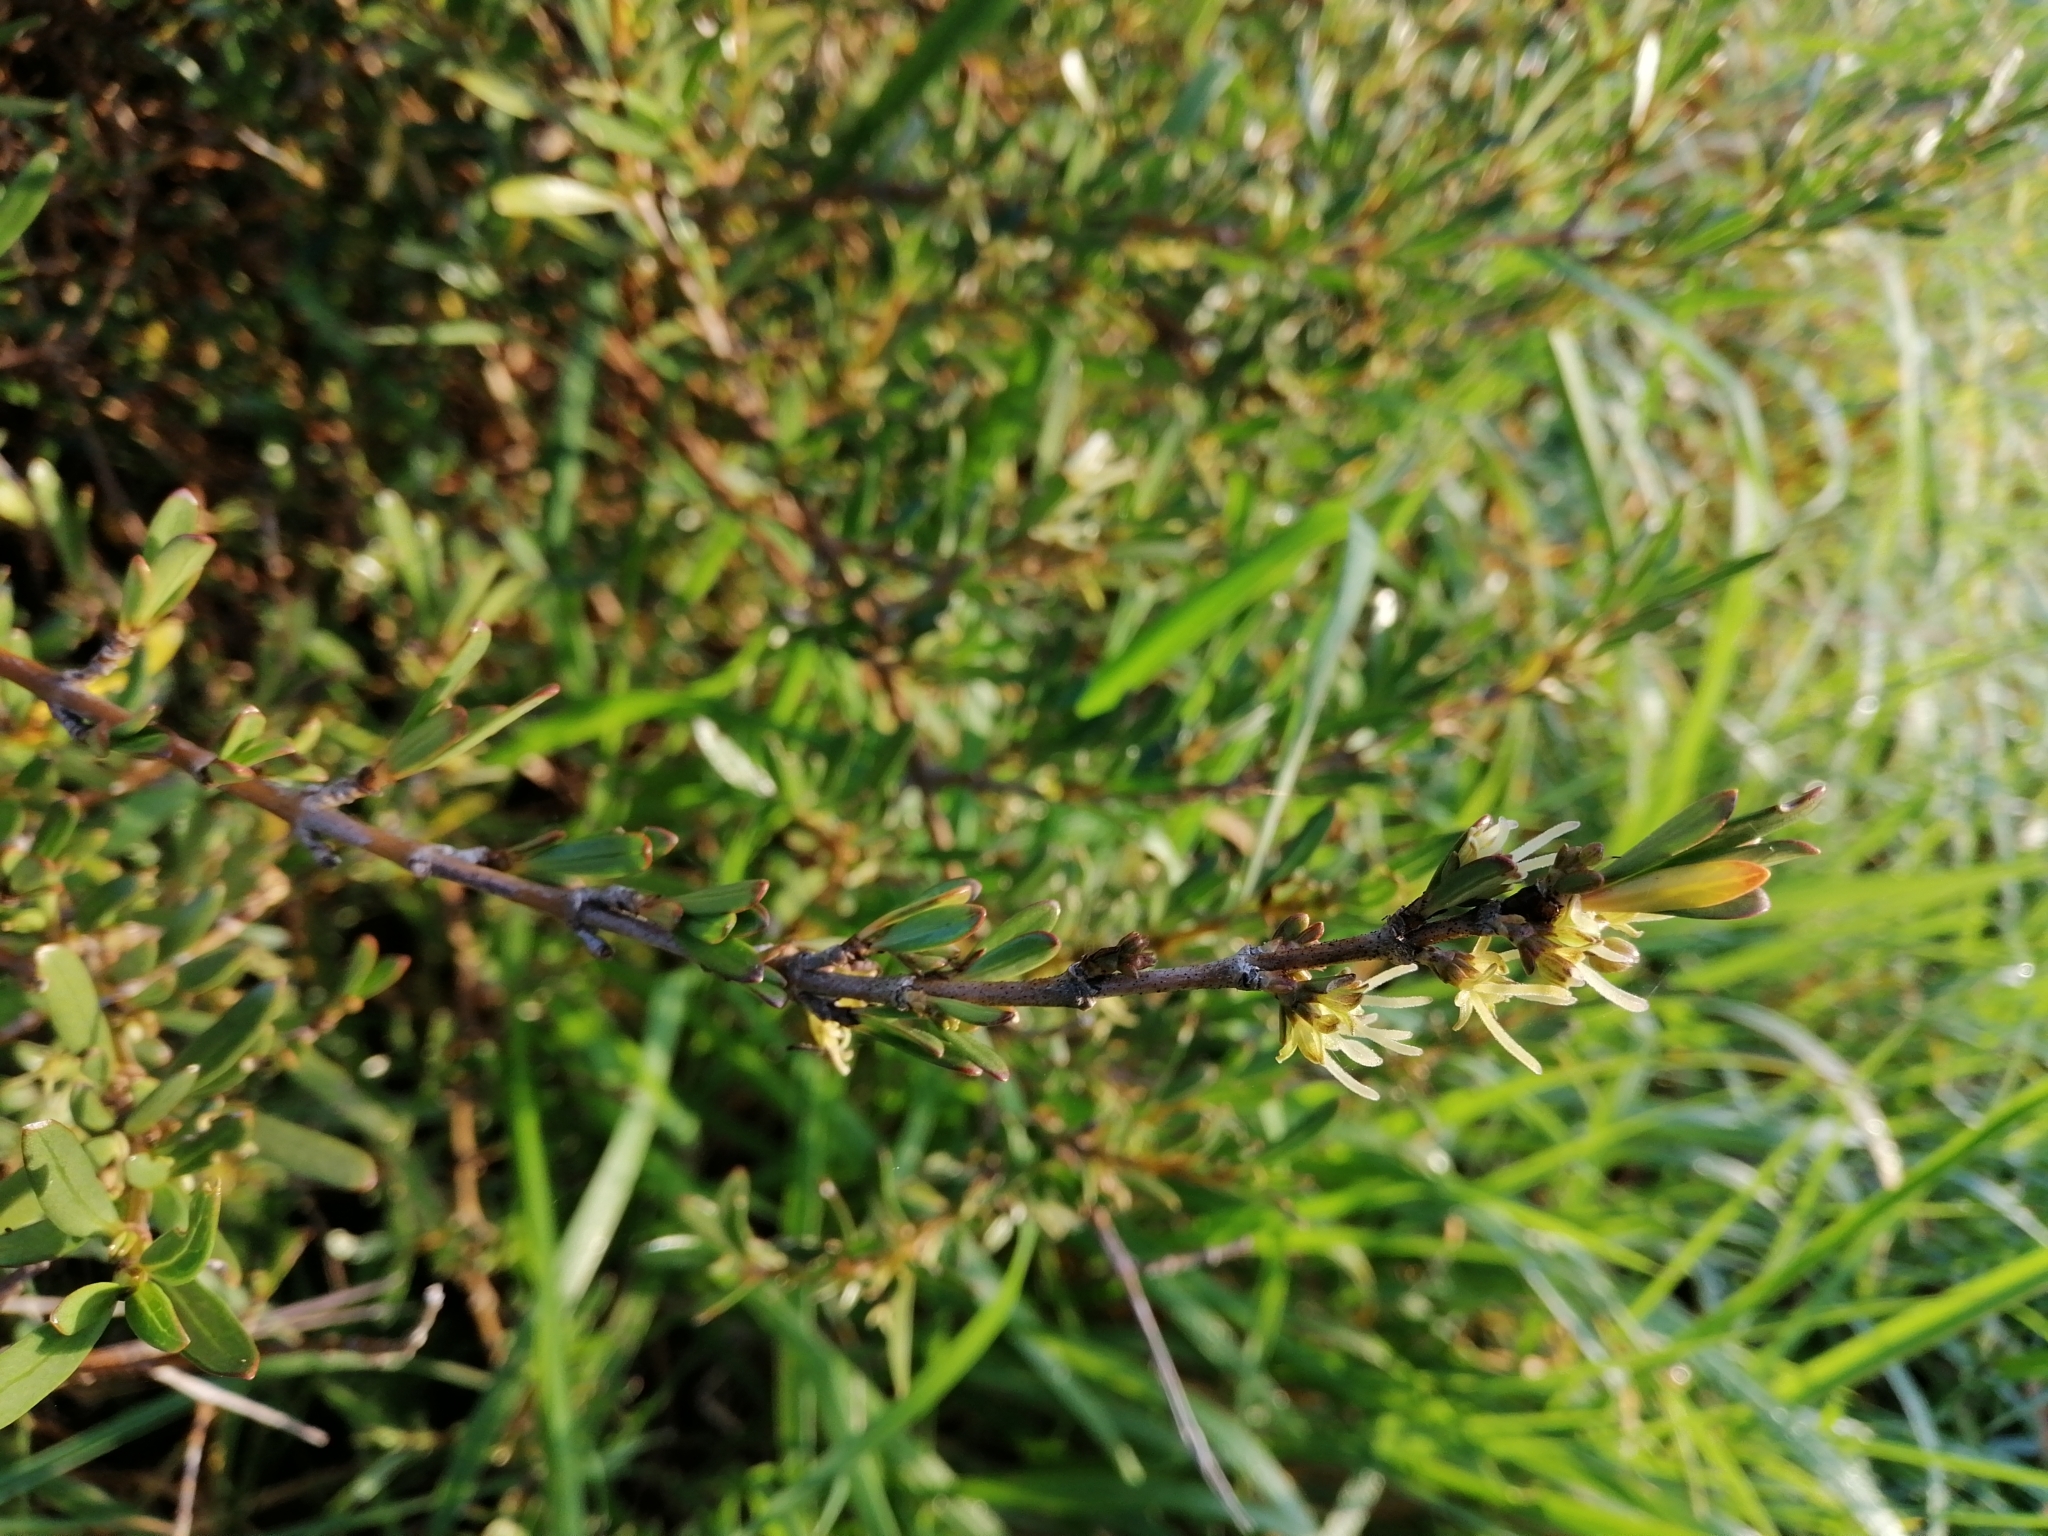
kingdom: Plantae
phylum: Tracheophyta
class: Magnoliopsida
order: Gentianales
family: Rubiaceae
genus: Coprosma
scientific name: Coprosma acerosa
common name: Sand coprosma
